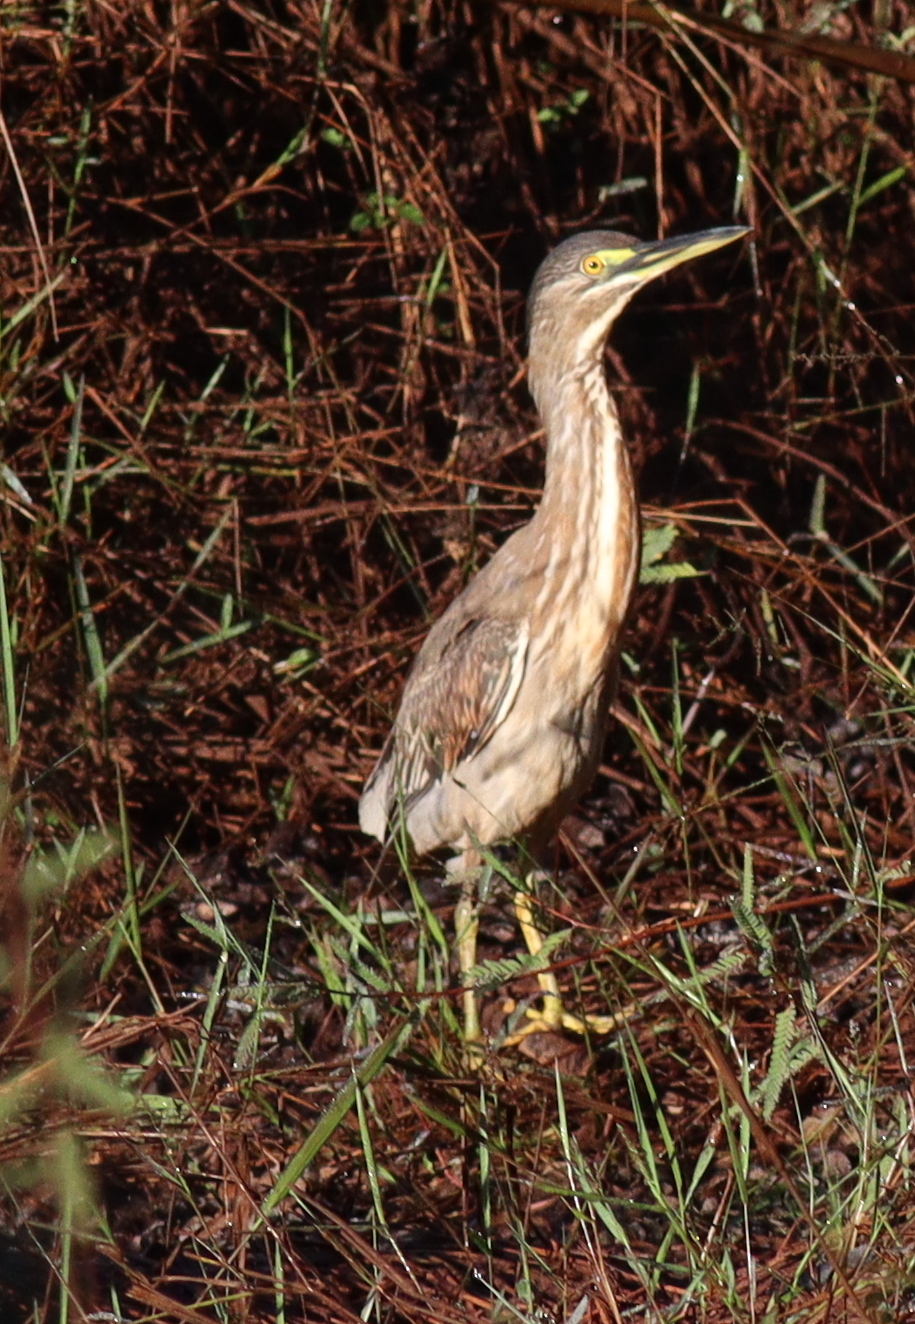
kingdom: Animalia
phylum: Chordata
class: Aves
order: Pelecaniformes
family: Ardeidae
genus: Butorides
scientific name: Butorides striata
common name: Striated heron
